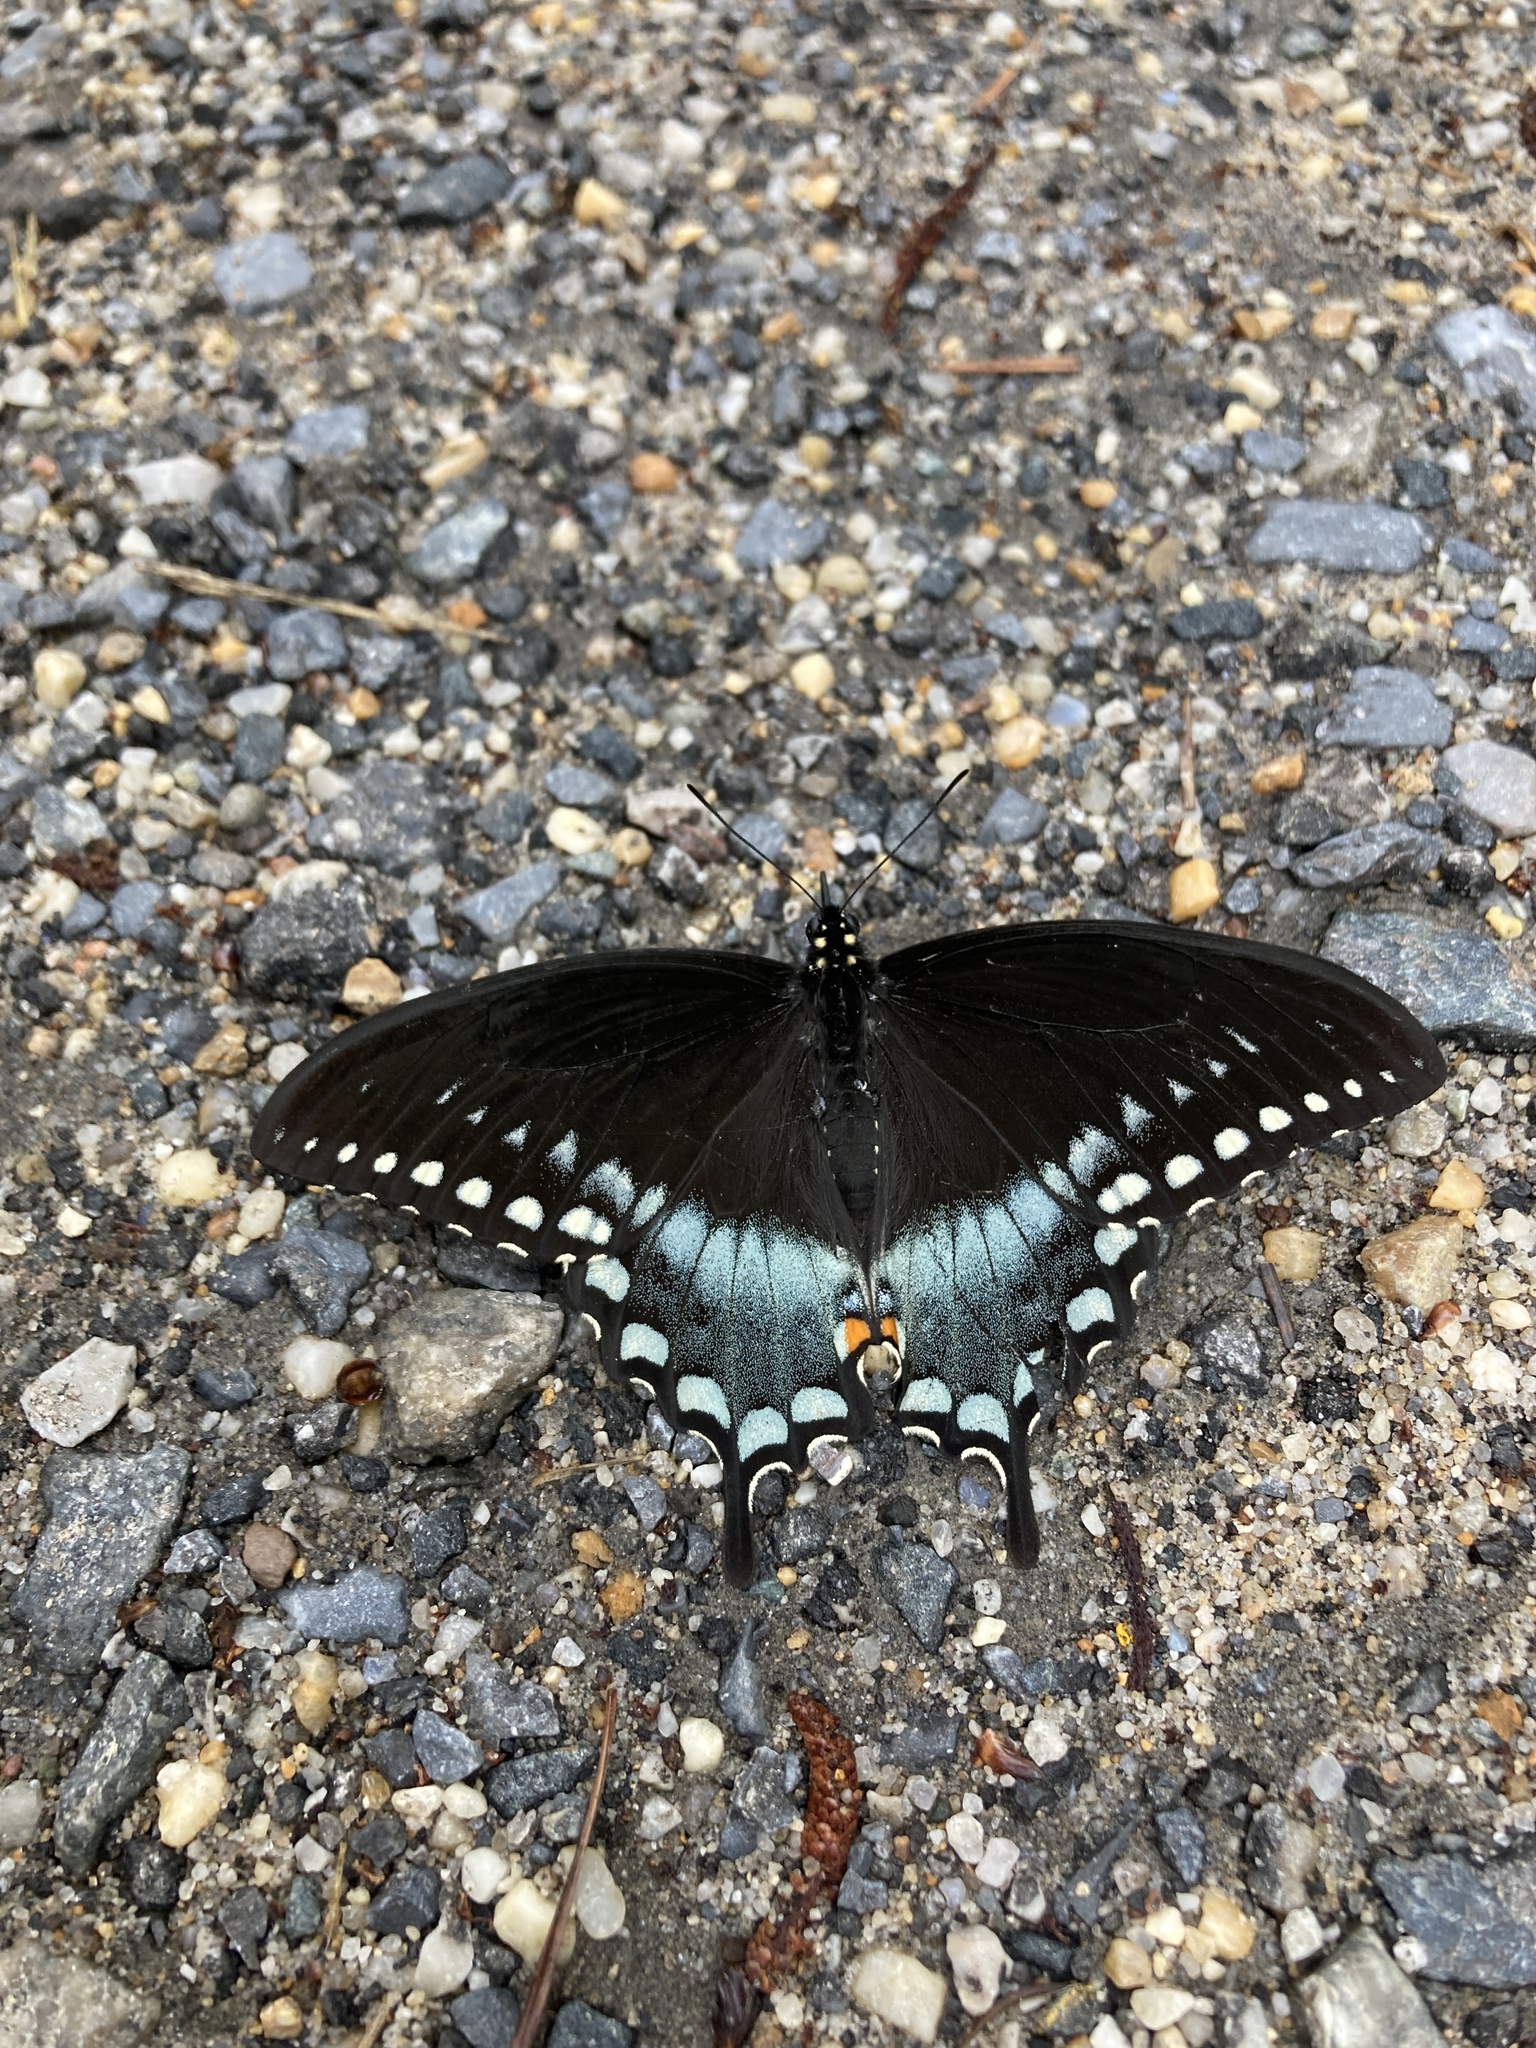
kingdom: Animalia
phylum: Arthropoda
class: Insecta
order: Lepidoptera
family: Papilionidae
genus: Papilio
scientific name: Papilio troilus
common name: Spicebush swallowtail
